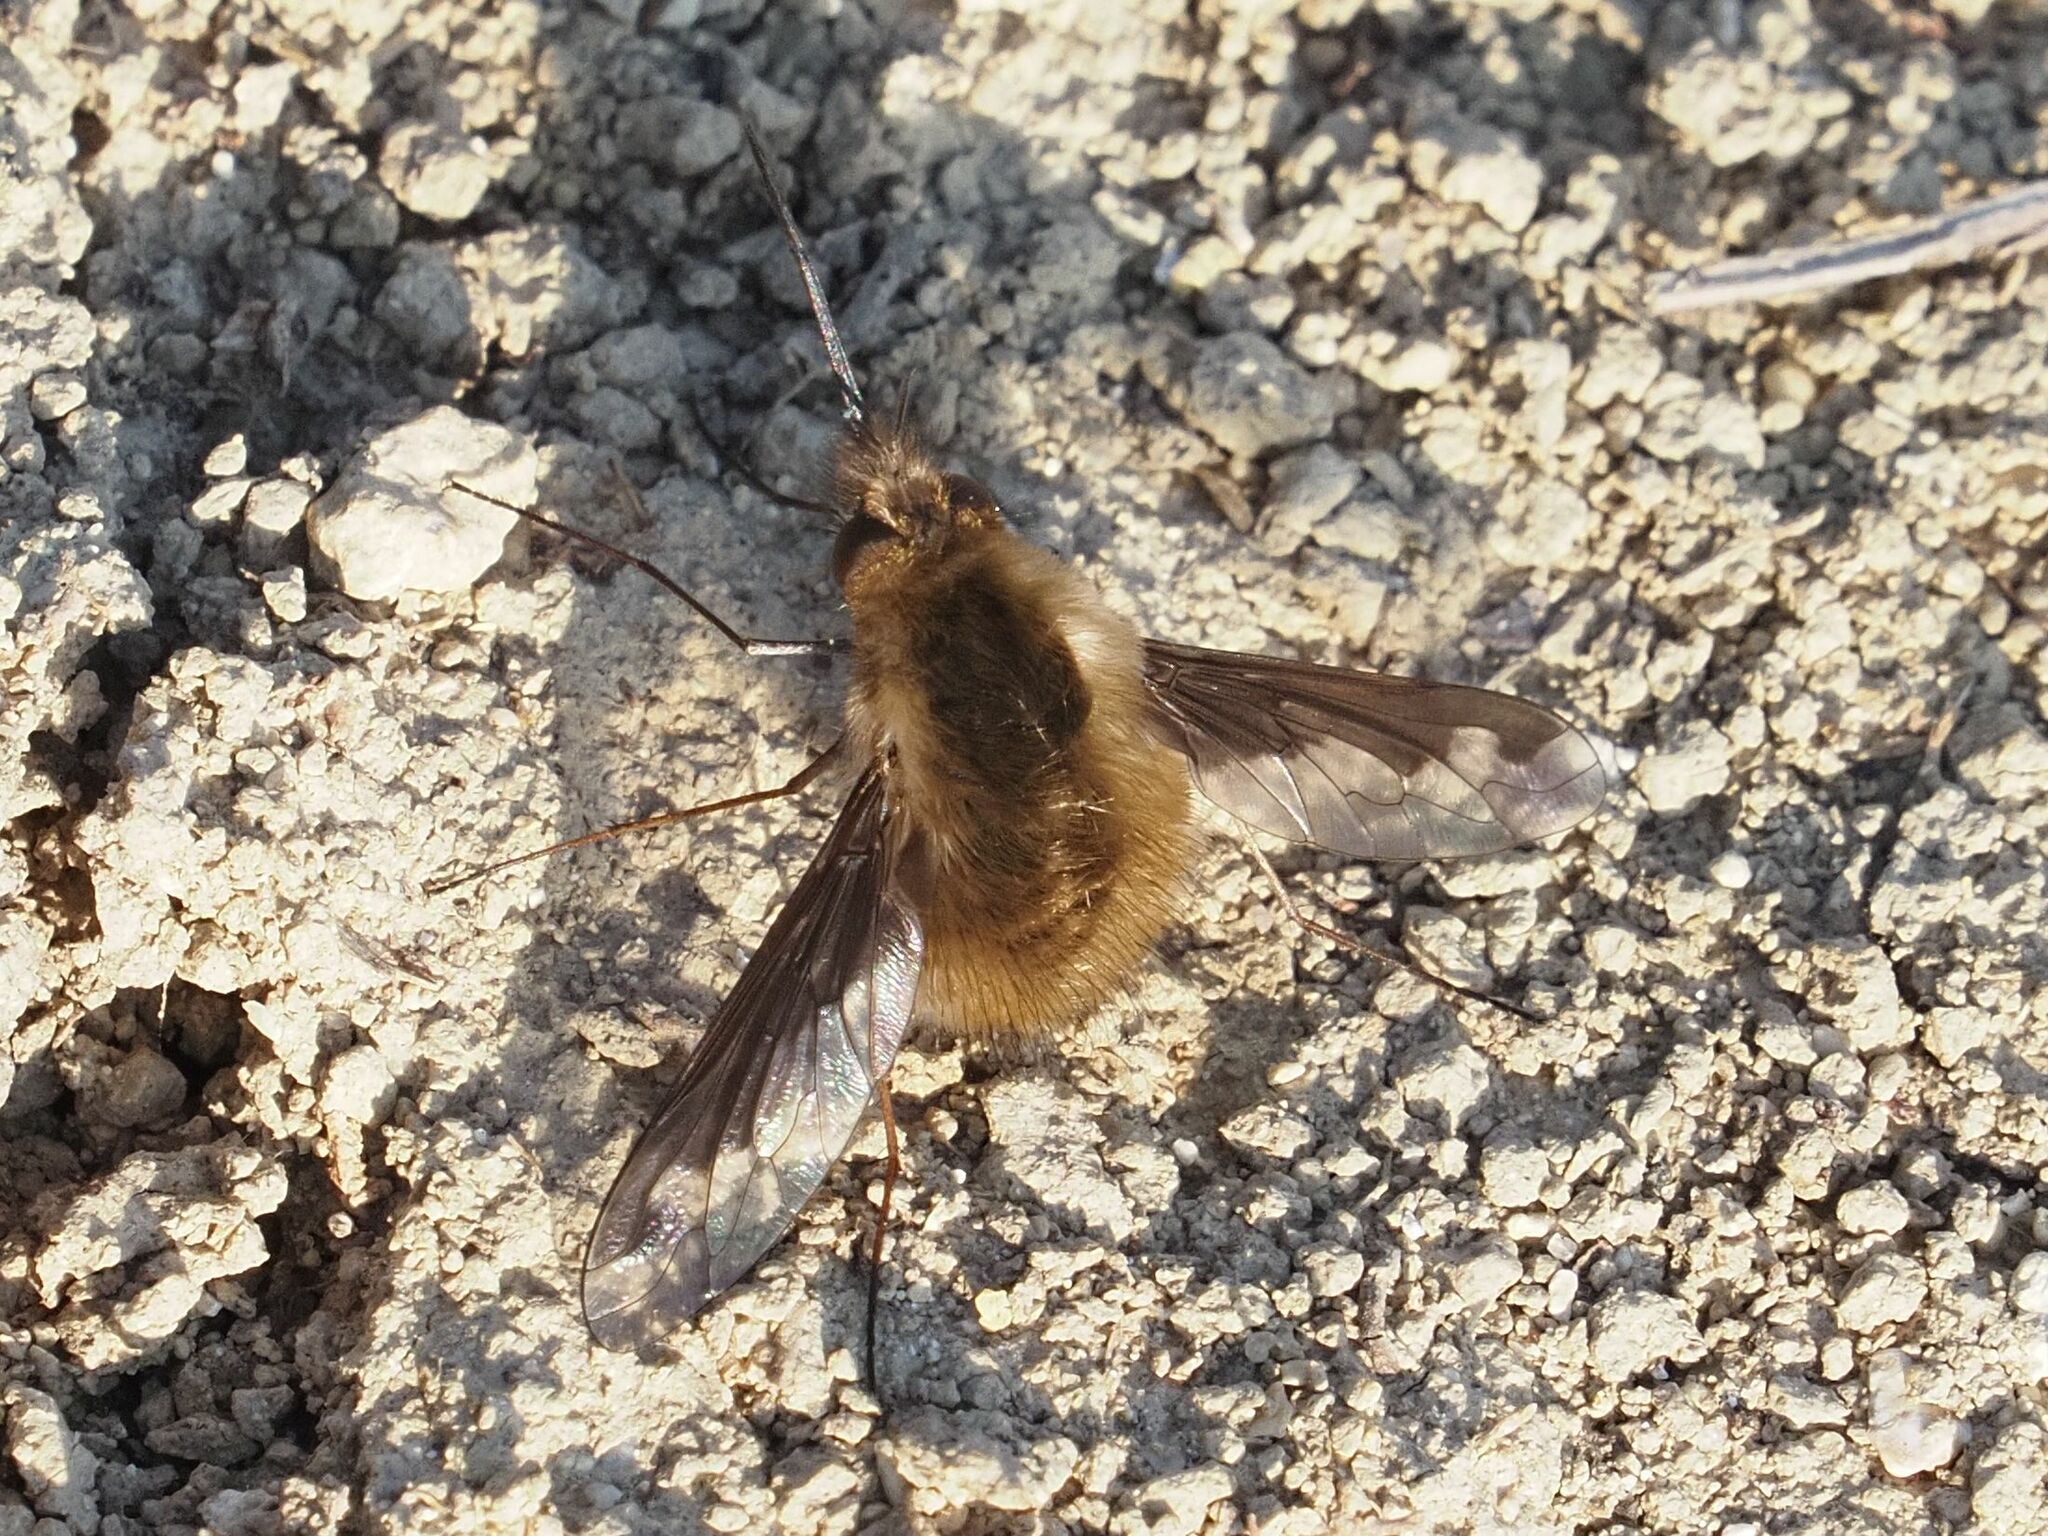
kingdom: Animalia
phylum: Arthropoda
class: Insecta
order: Diptera
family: Bombyliidae
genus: Bombylius
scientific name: Bombylius major
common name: Bee fly
